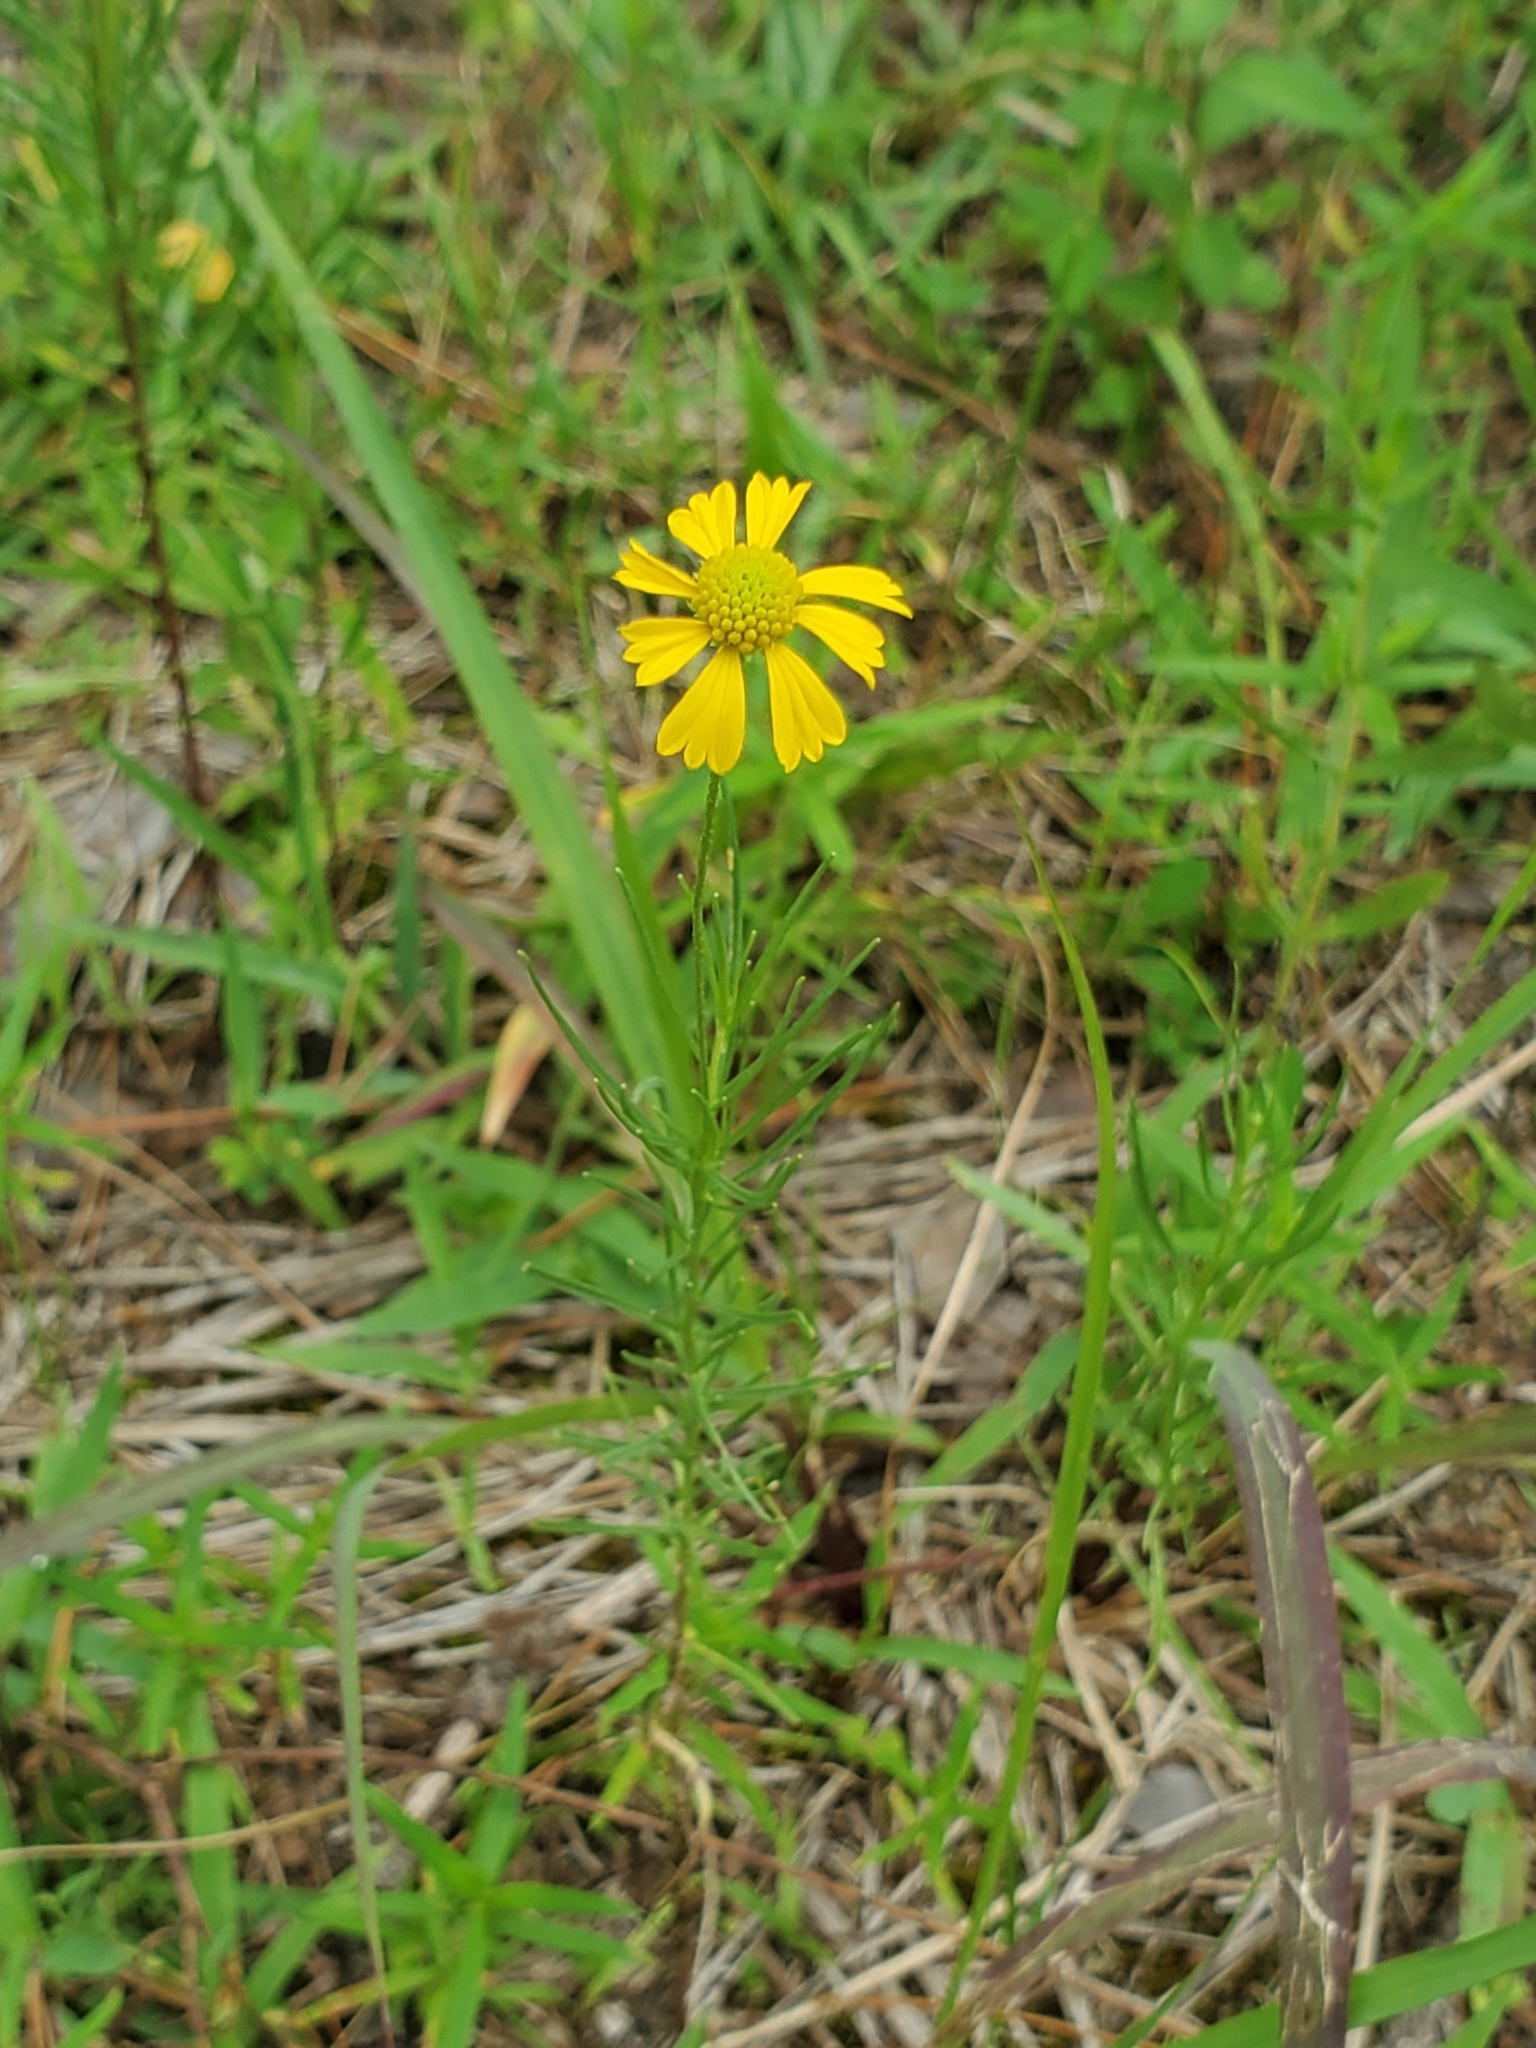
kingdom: Plantae
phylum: Tracheophyta
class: Magnoliopsida
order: Asterales
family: Asteraceae
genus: Helenium
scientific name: Helenium amarum
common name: Bitter sneezeweed
